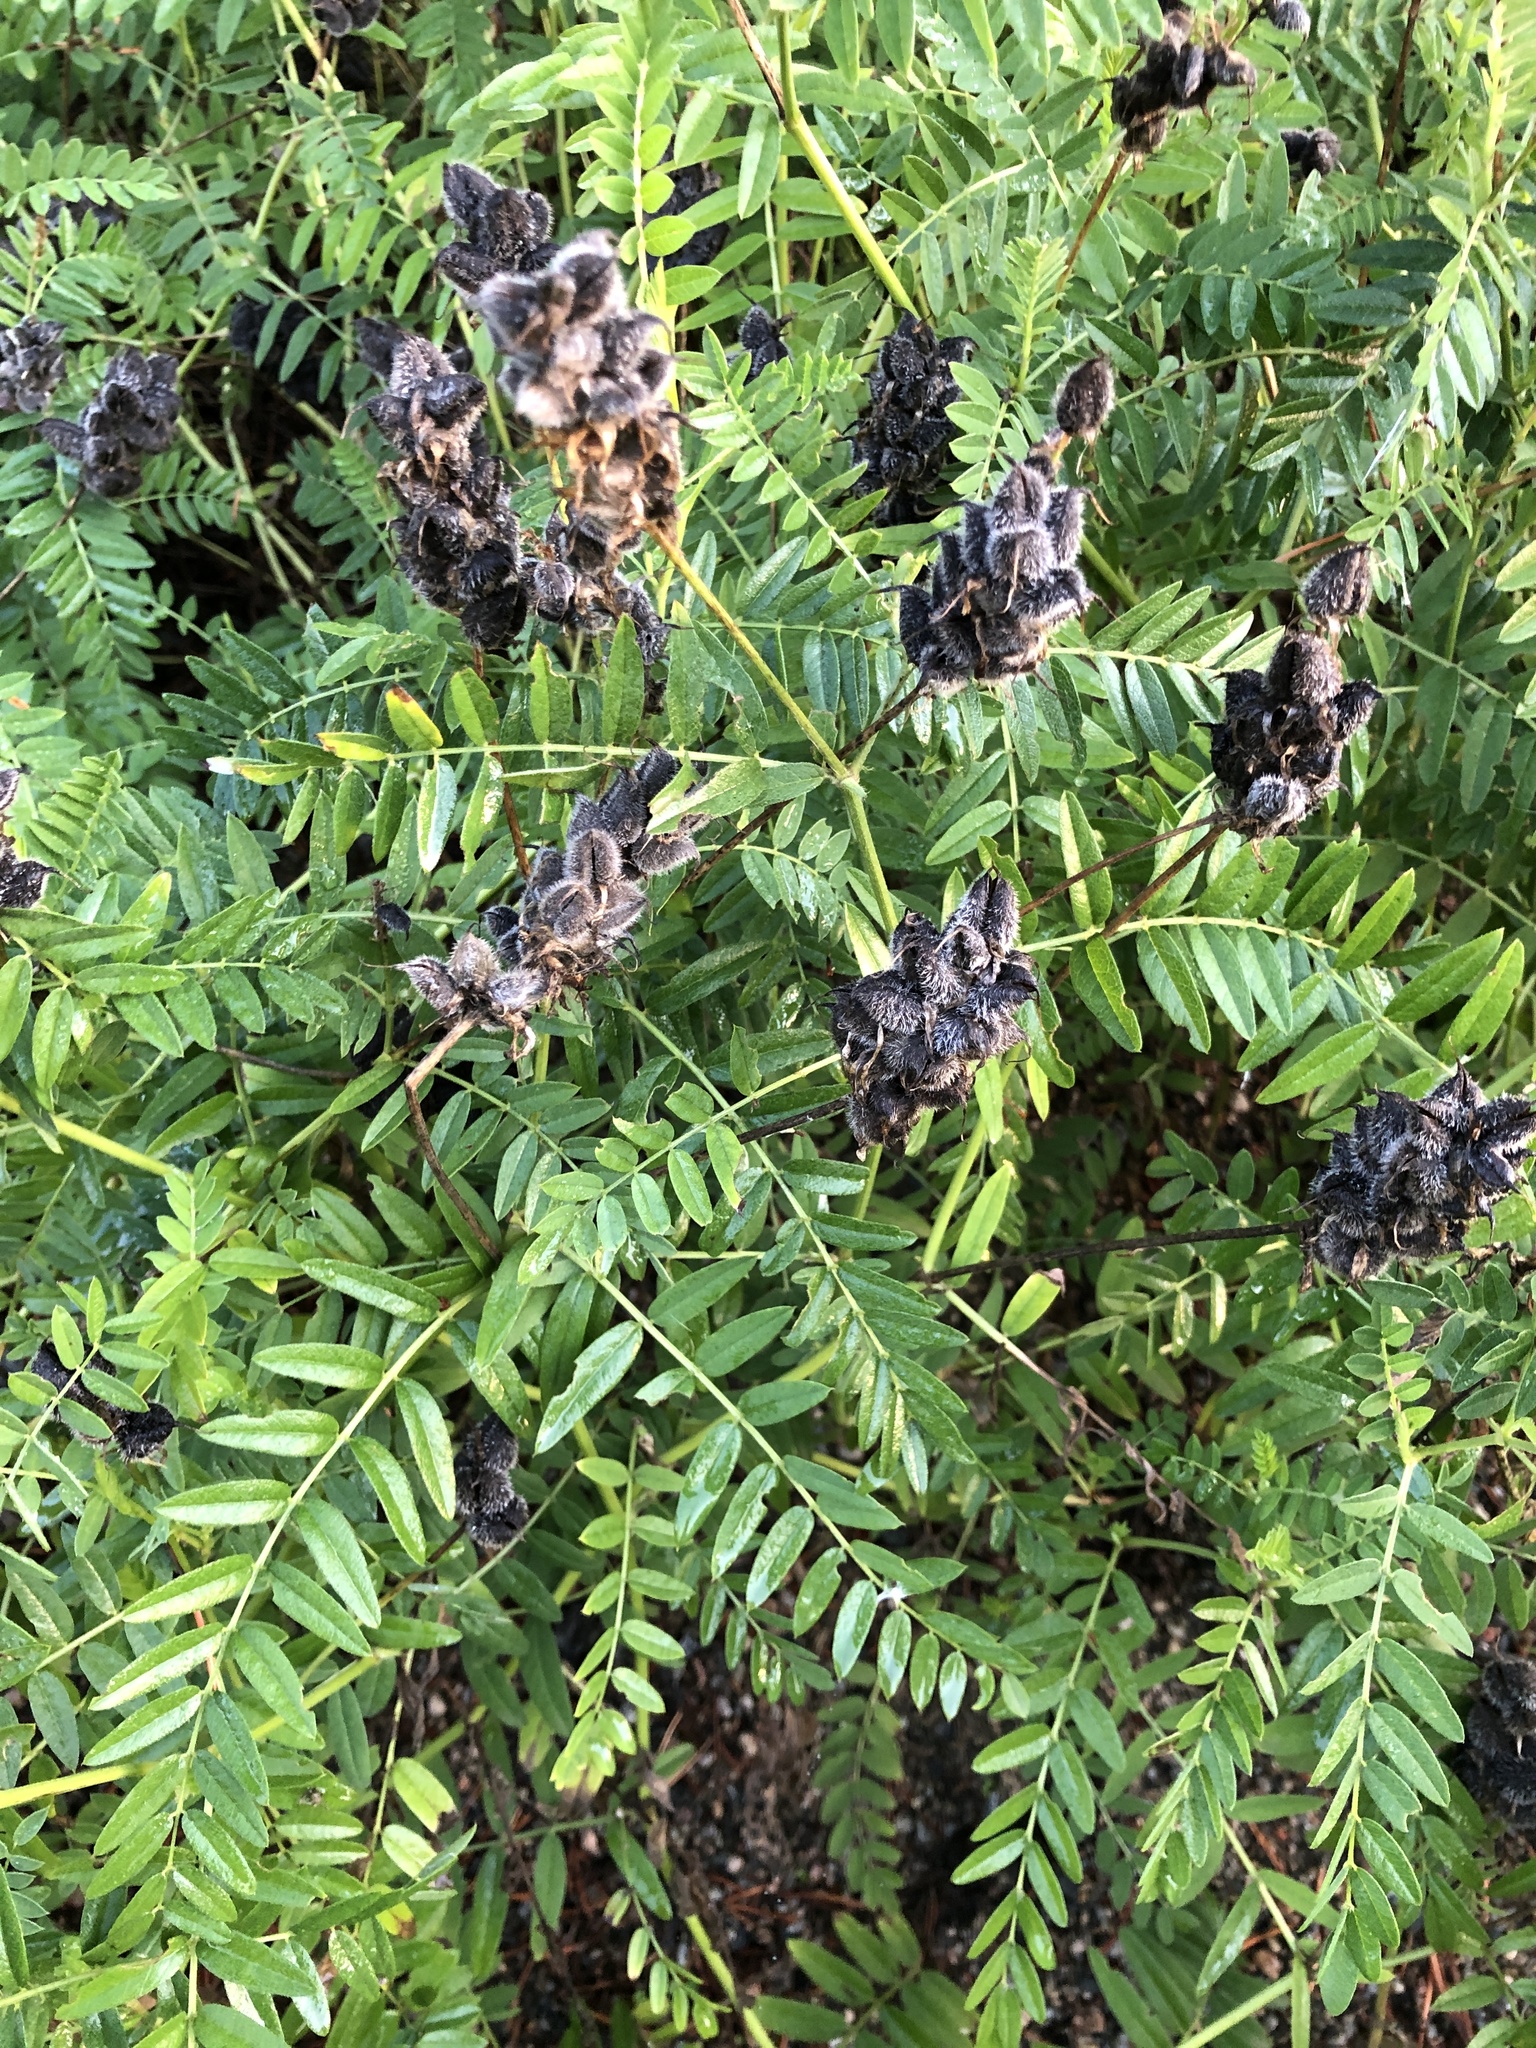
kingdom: Plantae
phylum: Tracheophyta
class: Magnoliopsida
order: Fabales
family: Fabaceae
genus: Astragalus
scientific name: Astragalus cicer
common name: Chick-pea milk-vetch
